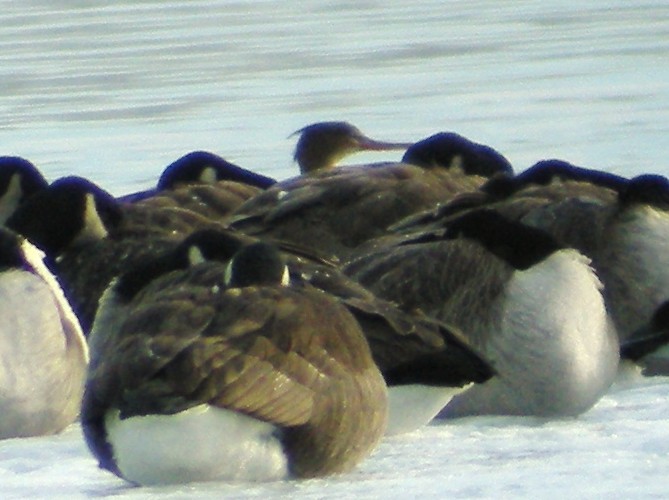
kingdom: Animalia
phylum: Chordata
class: Aves
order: Anseriformes
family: Anatidae
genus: Mergus
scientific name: Mergus serrator
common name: Red-breasted merganser
